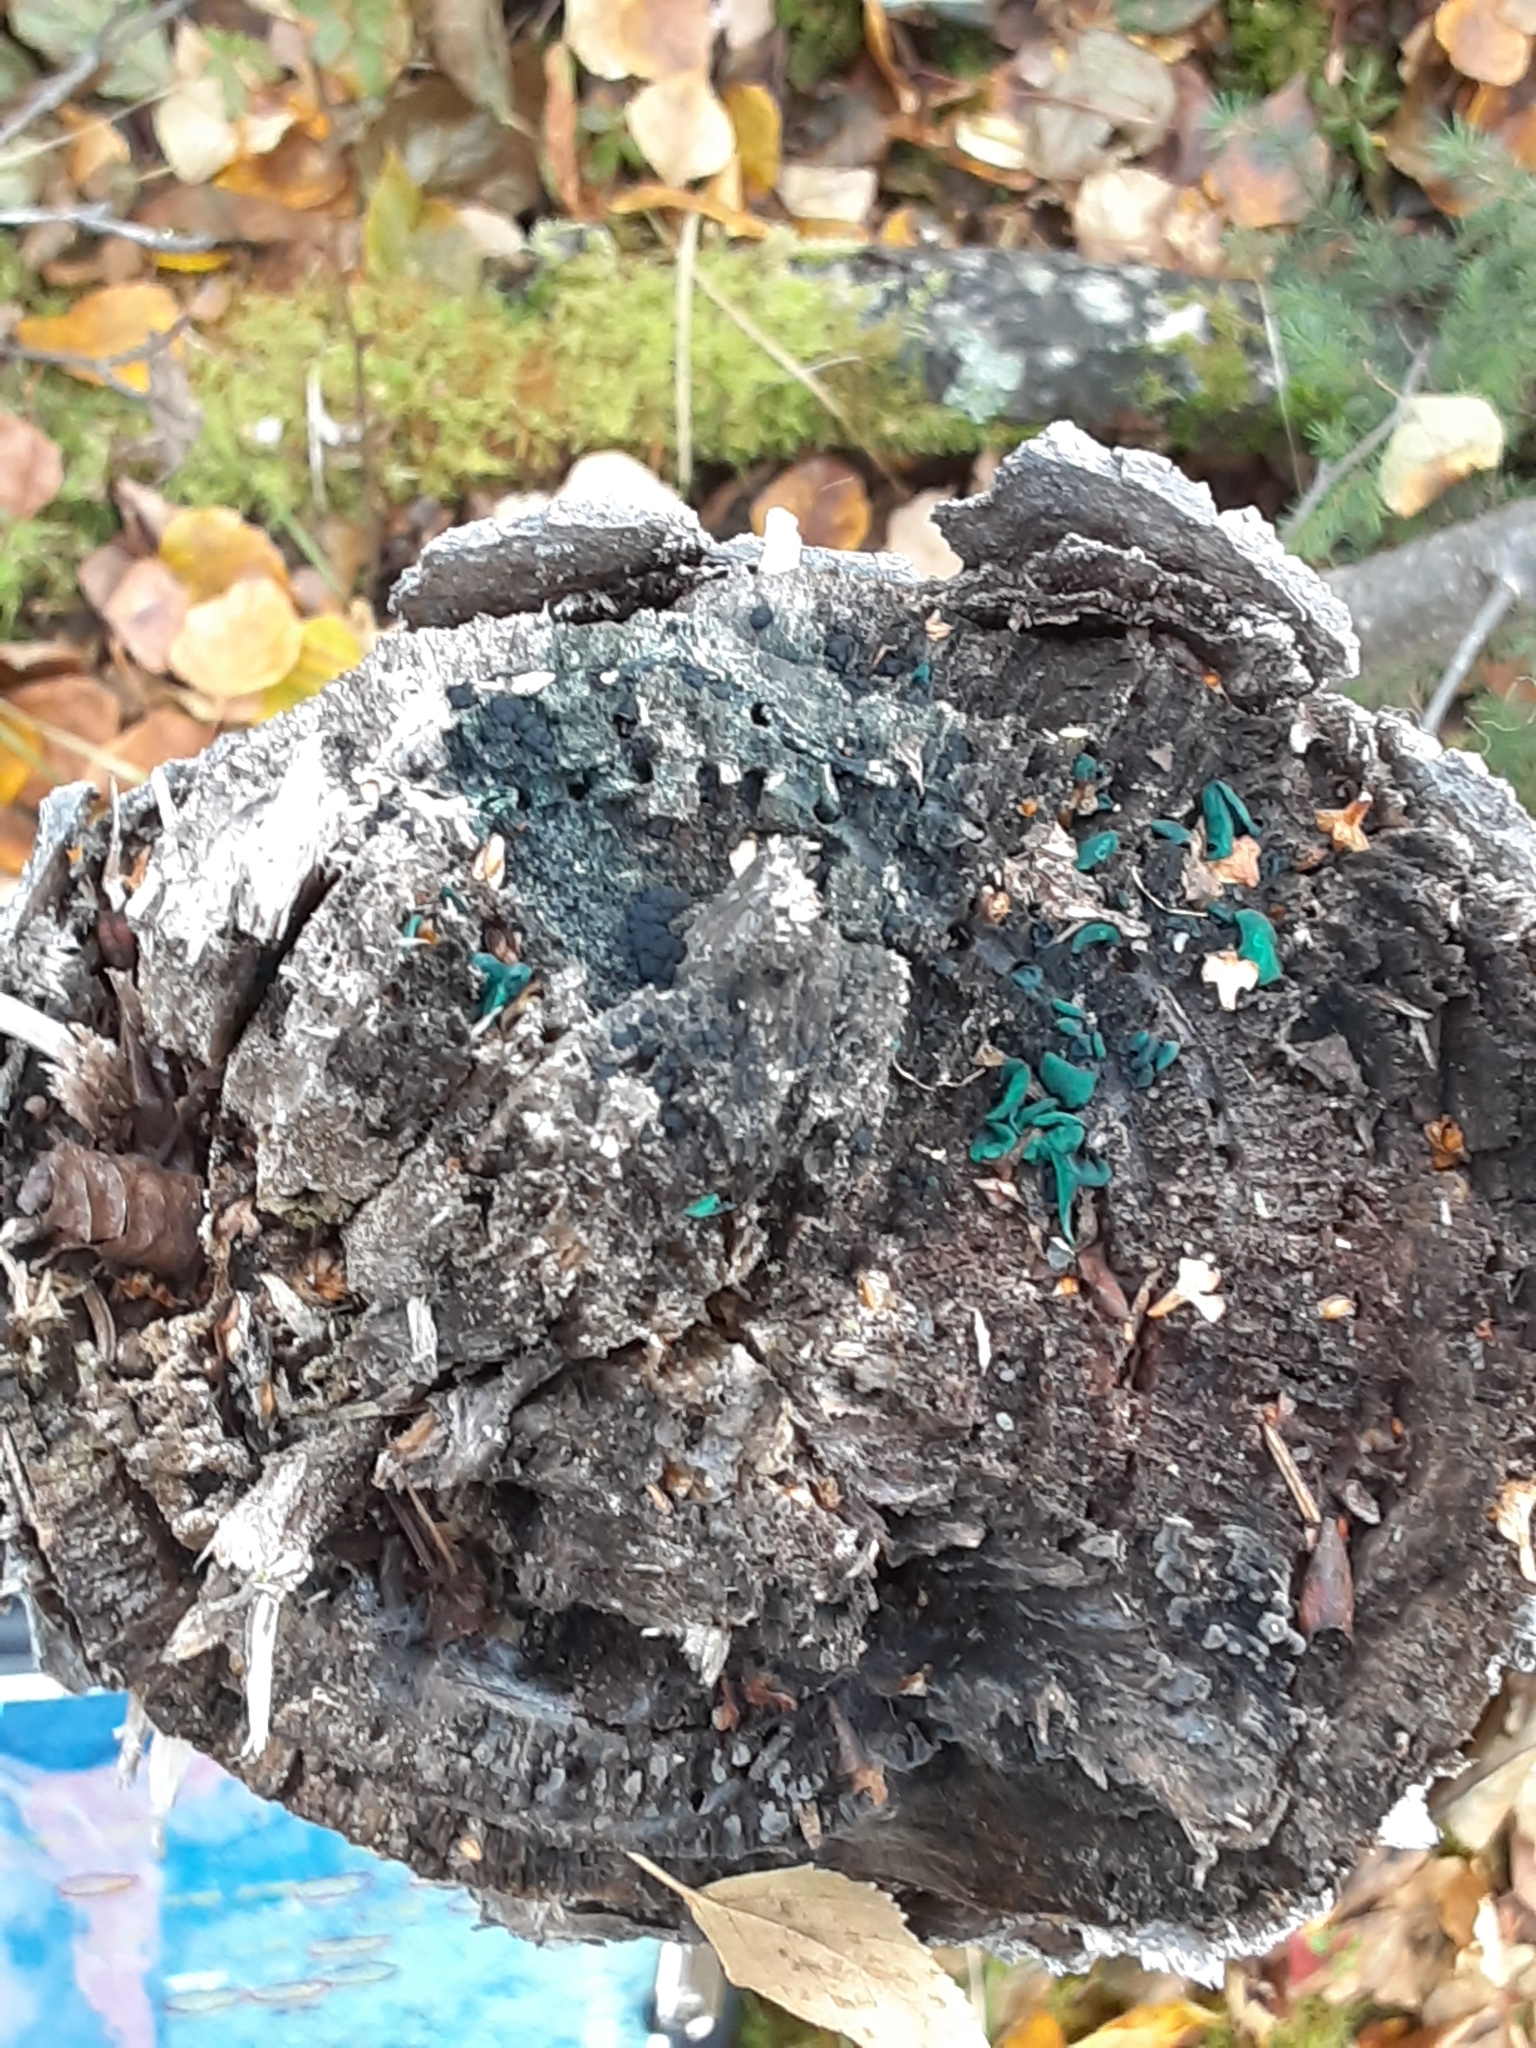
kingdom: Fungi
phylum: Ascomycota
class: Leotiomycetes
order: Helotiales
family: Chlorociboriaceae
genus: Chlorociboria
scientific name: Chlorociboria aeruginascens
